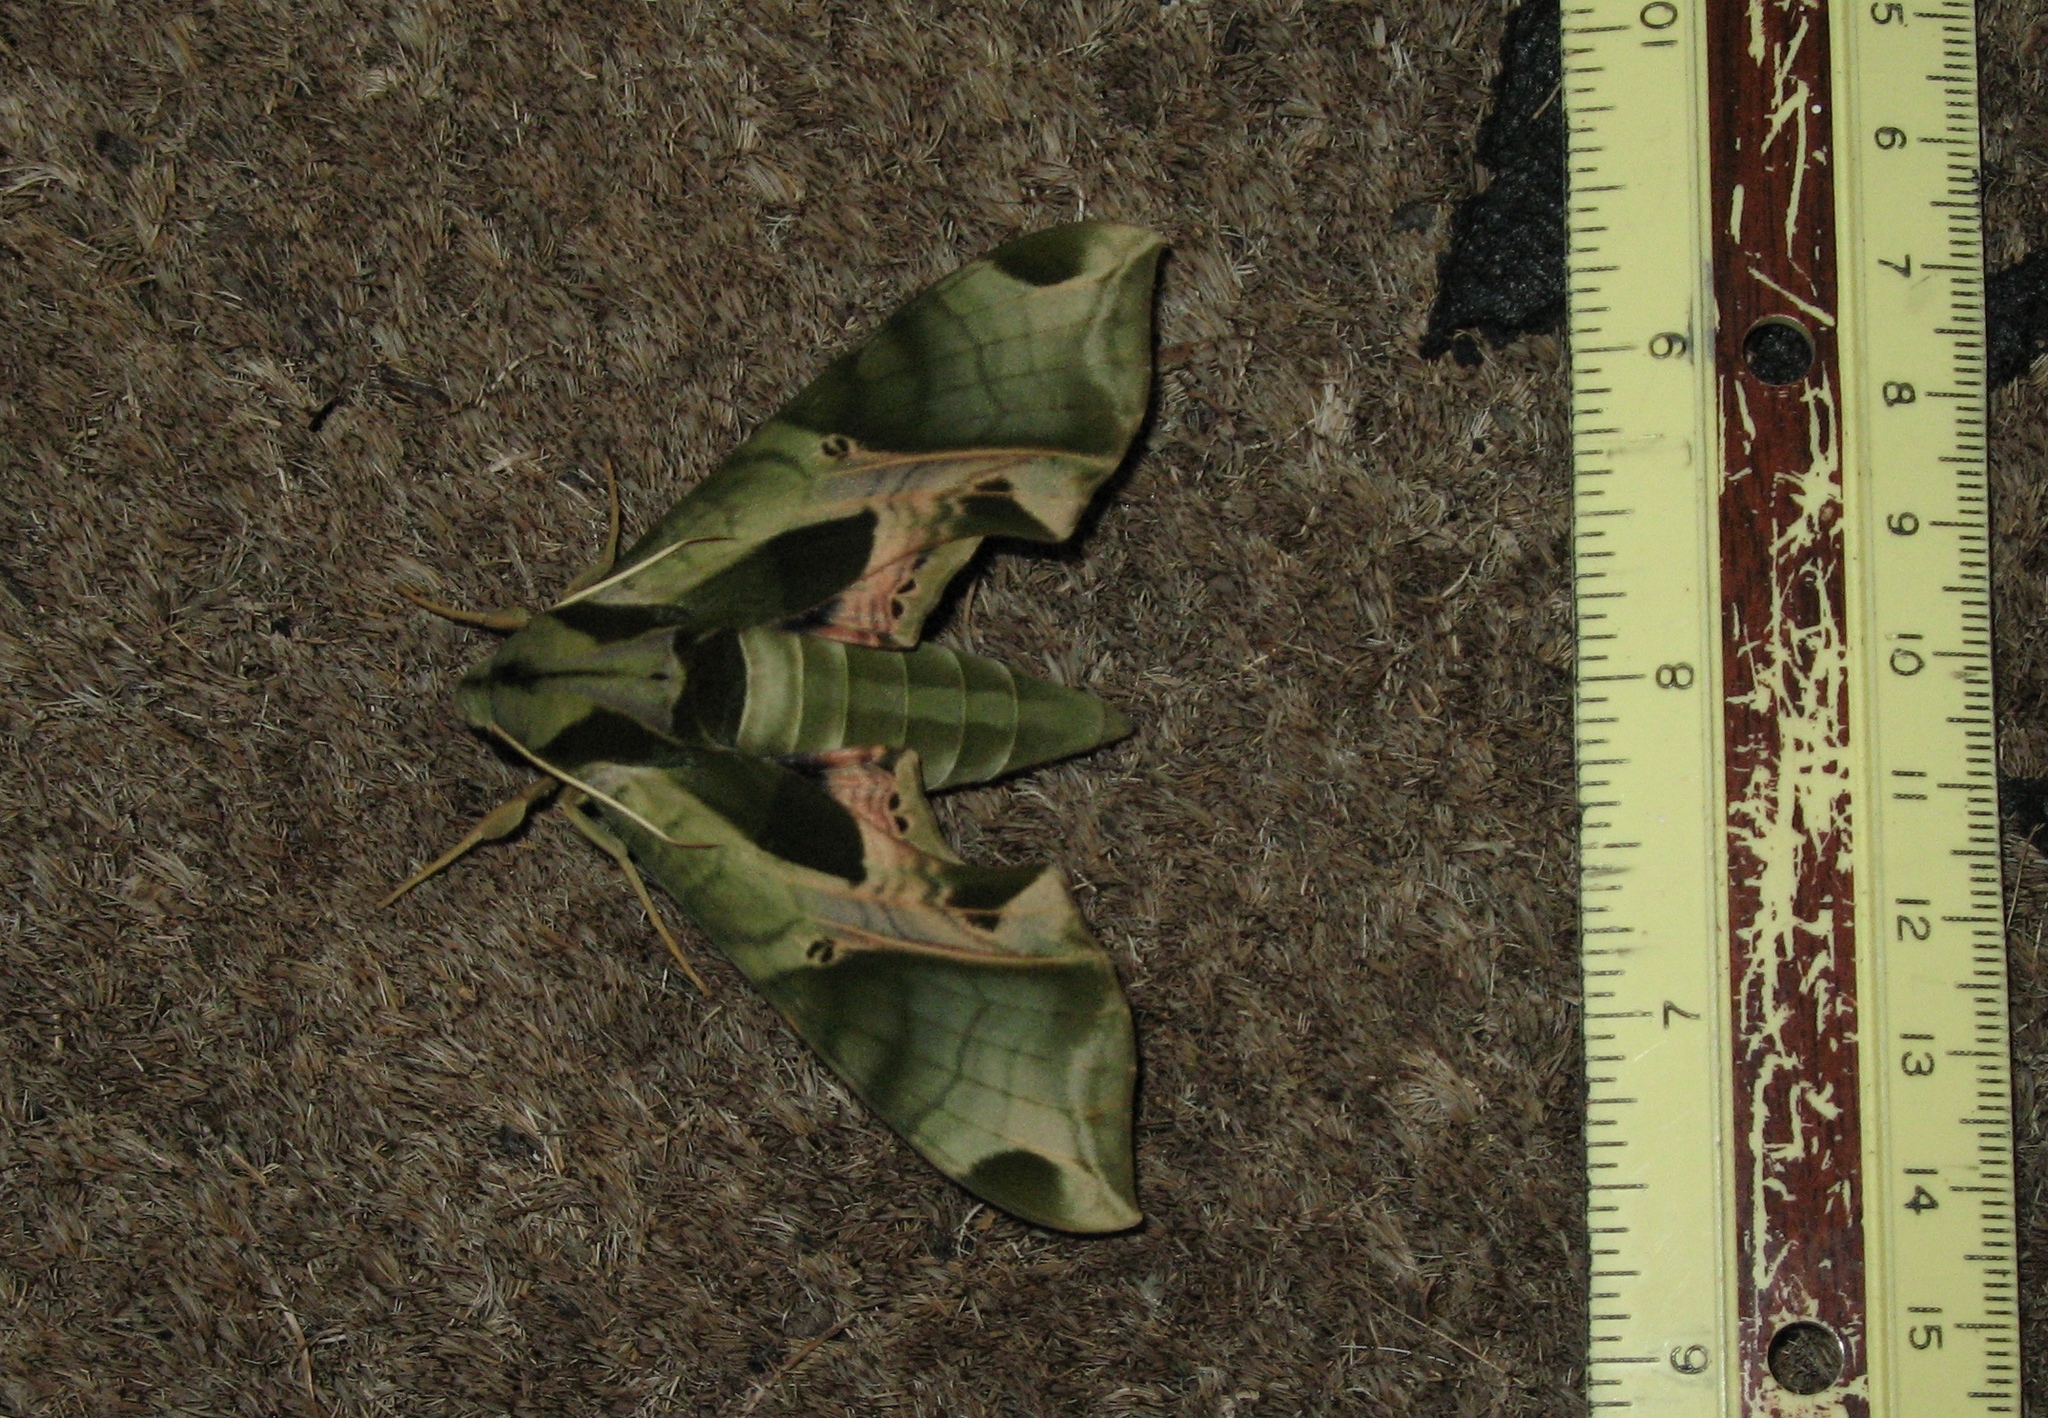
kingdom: Animalia
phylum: Arthropoda
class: Insecta
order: Lepidoptera
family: Sphingidae
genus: Eumorpha
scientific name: Eumorpha pandorus
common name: Pandora sphinx
